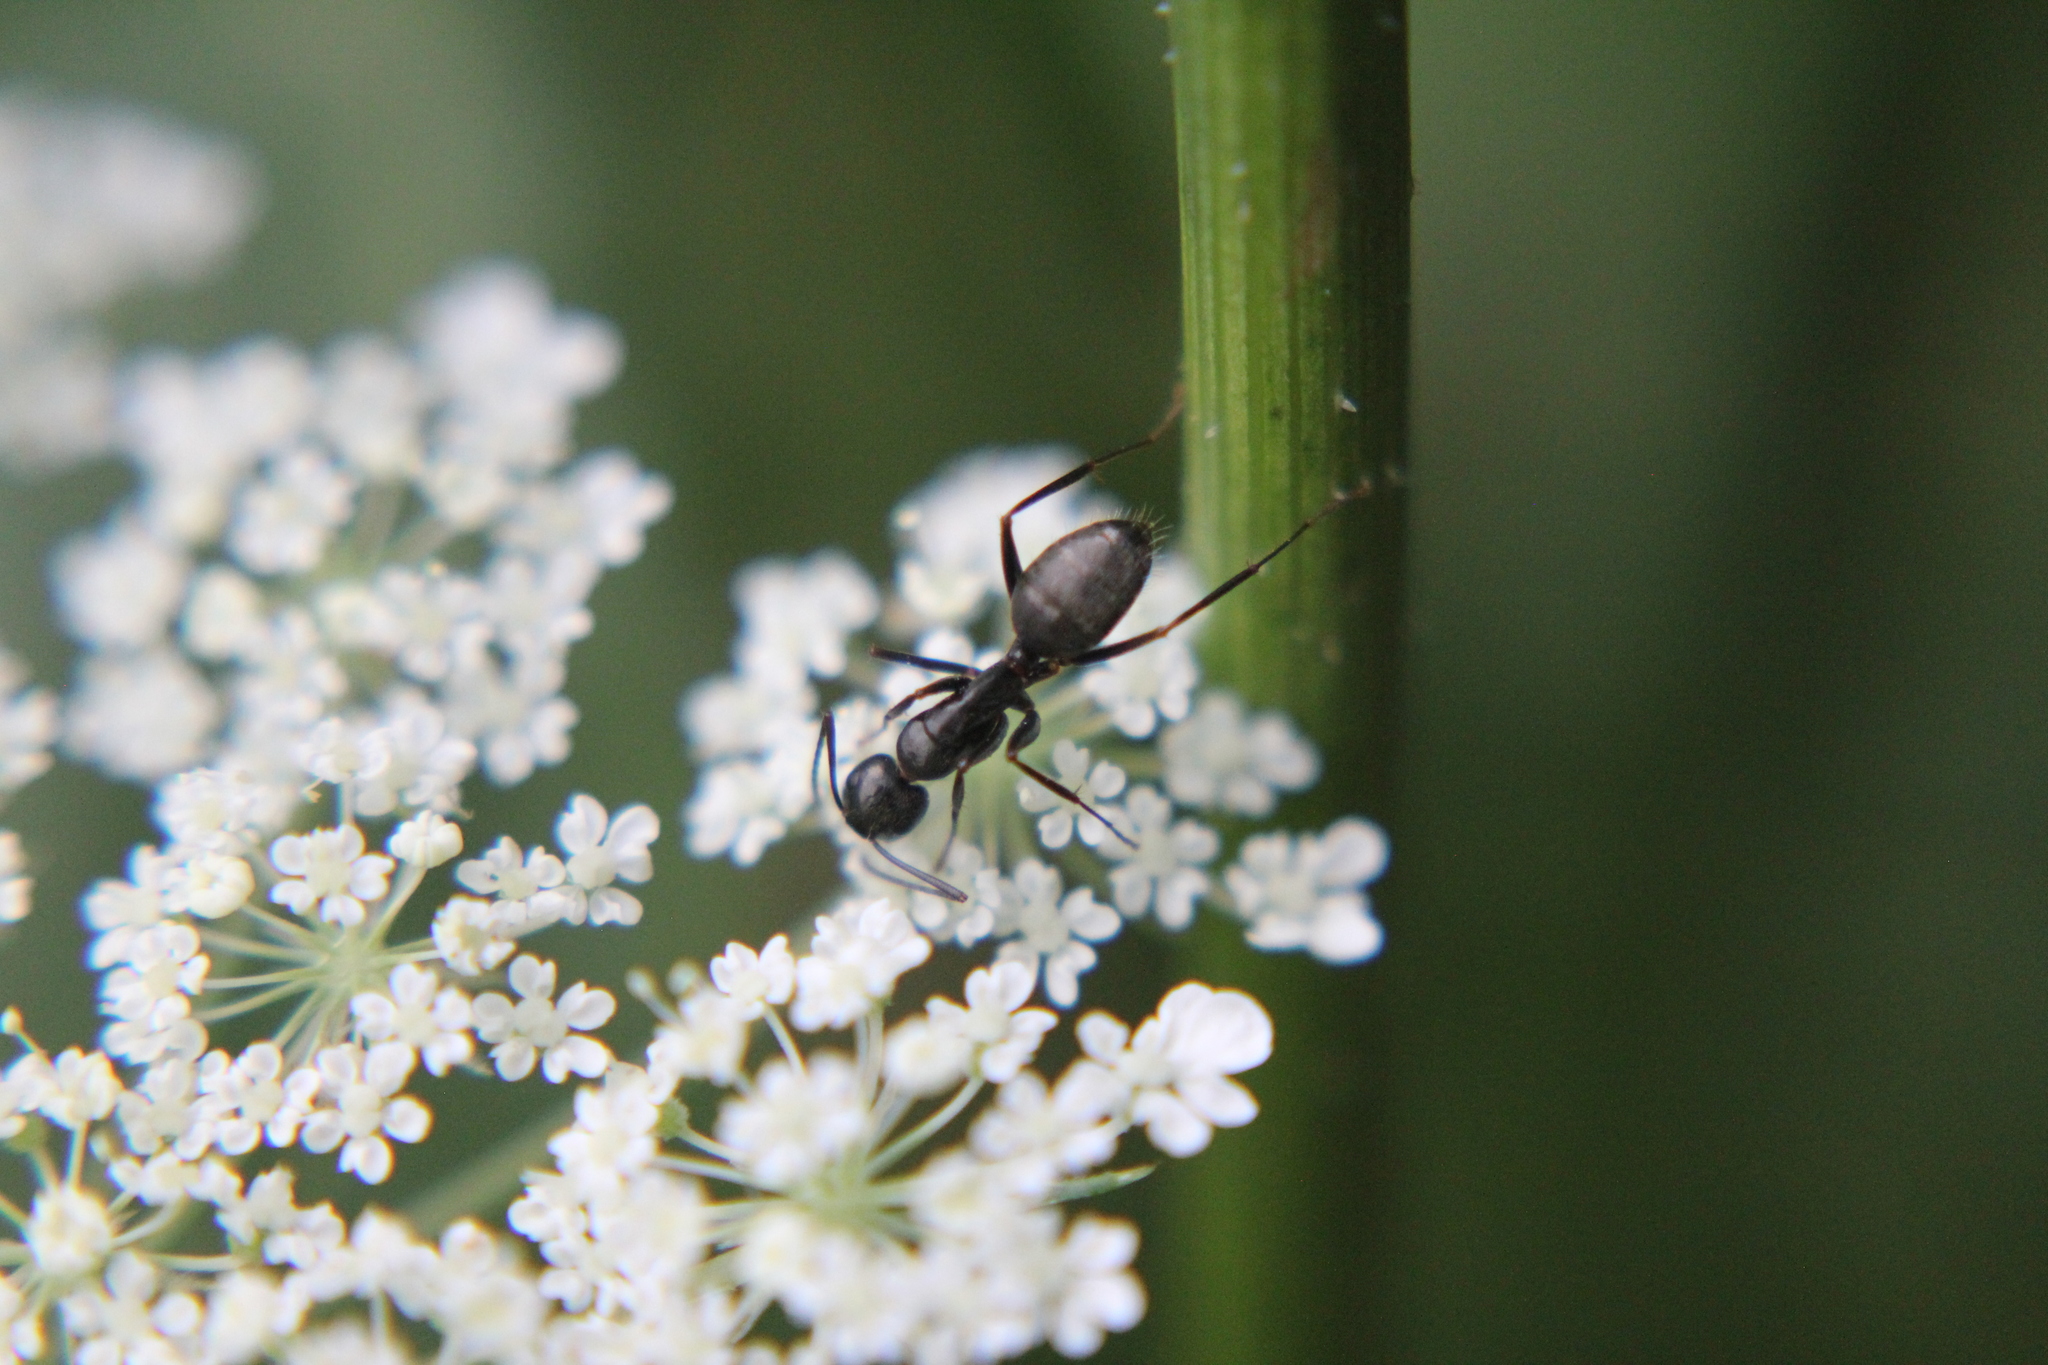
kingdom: Animalia
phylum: Arthropoda
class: Insecta
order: Hymenoptera
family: Formicidae
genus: Camponotus
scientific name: Camponotus pennsylvanicus
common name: Black carpenter ant
